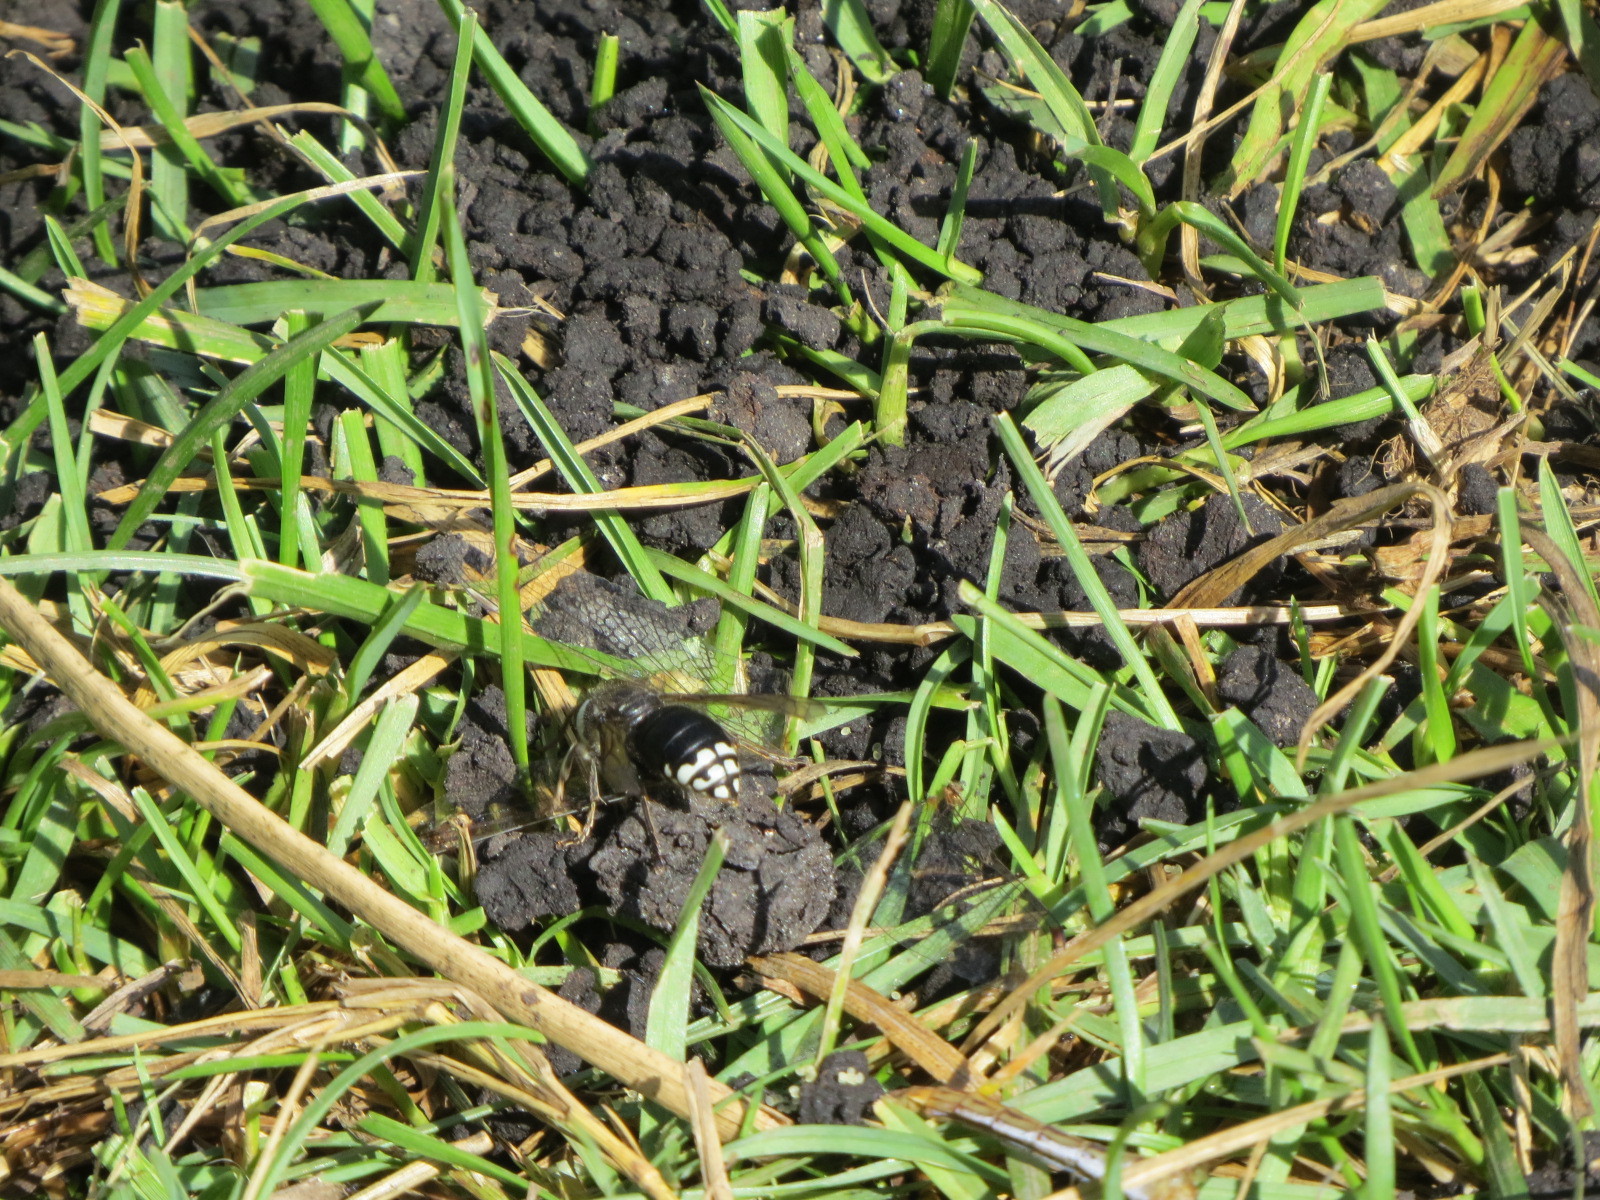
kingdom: Animalia
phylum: Arthropoda
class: Insecta
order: Hymenoptera
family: Vespidae
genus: Dolichovespula
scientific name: Dolichovespula maculata
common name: Bald-faced hornet
